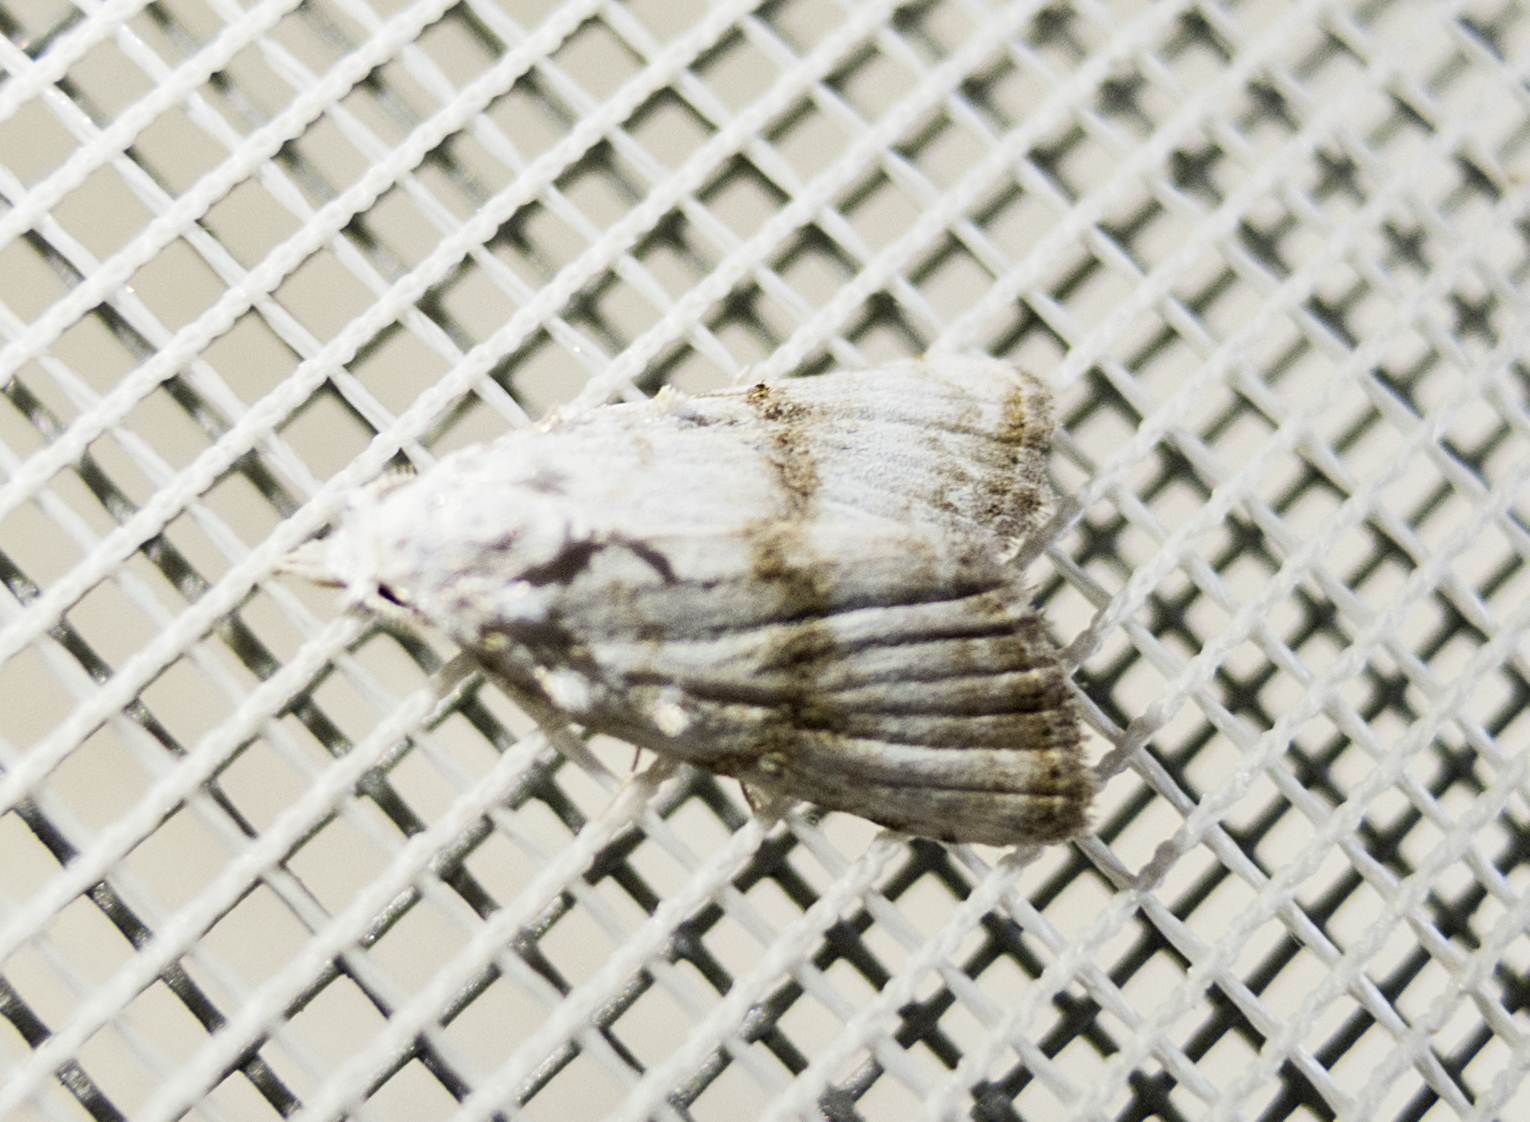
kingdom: Animalia
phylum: Arthropoda
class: Insecta
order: Lepidoptera
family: Nolidae
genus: Meganola
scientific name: Meganola albula
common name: Kent black arches
